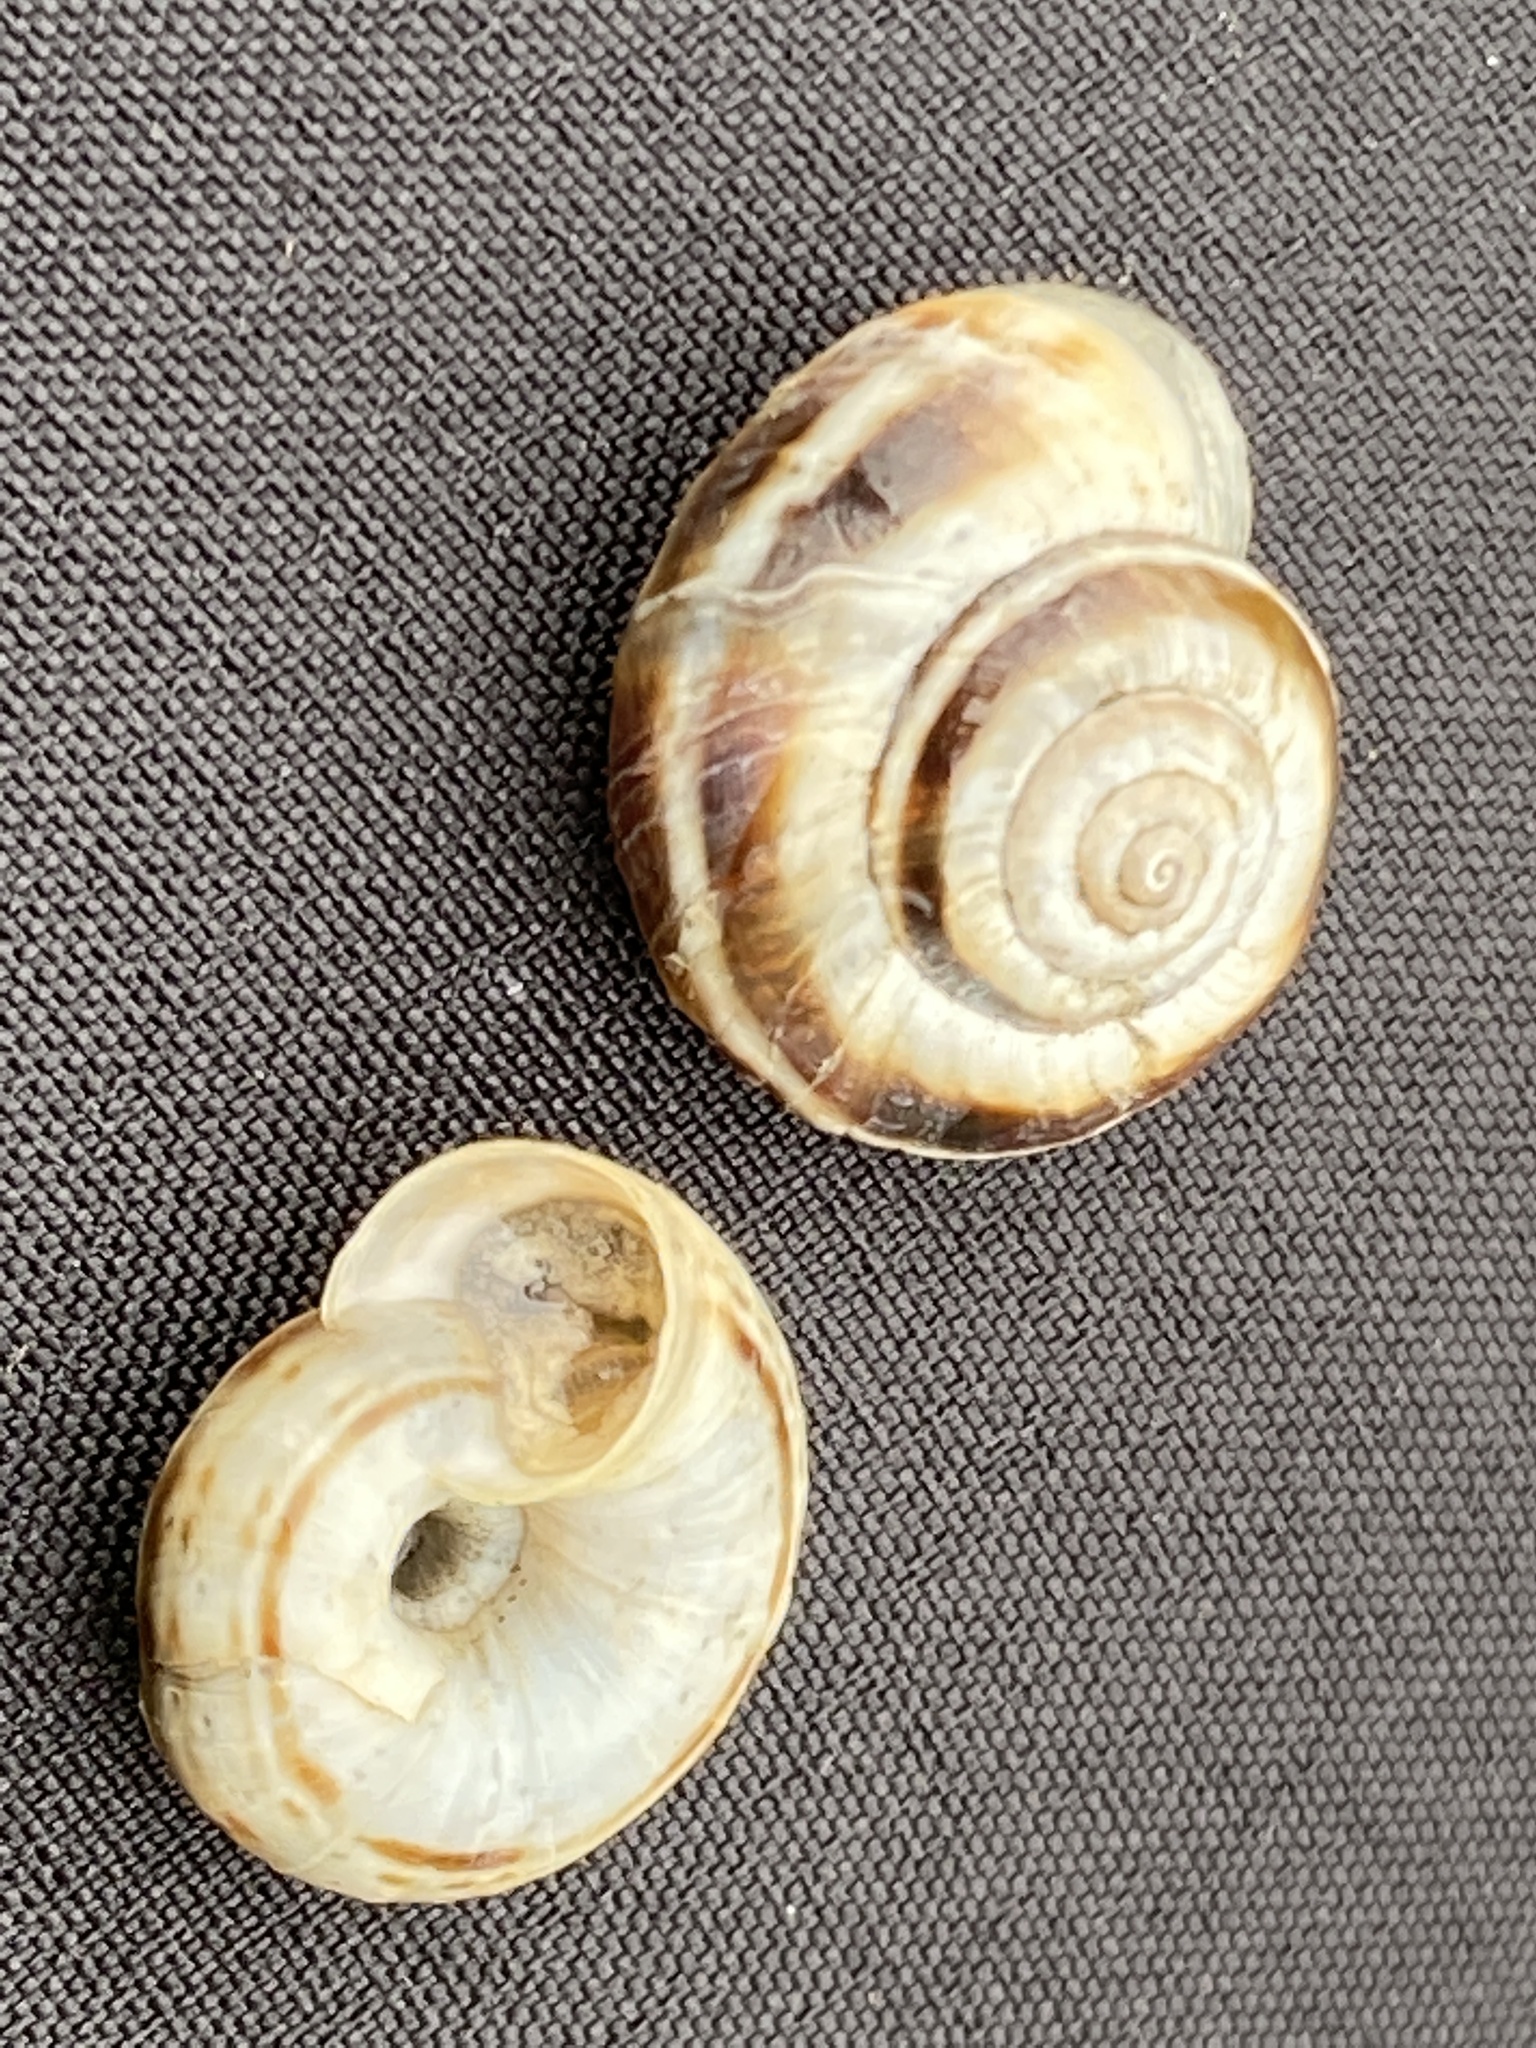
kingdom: Animalia
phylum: Mollusca
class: Gastropoda
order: Stylommatophora
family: Geomitridae
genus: Xerolenta
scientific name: Xerolenta obvia
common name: White heath snail
